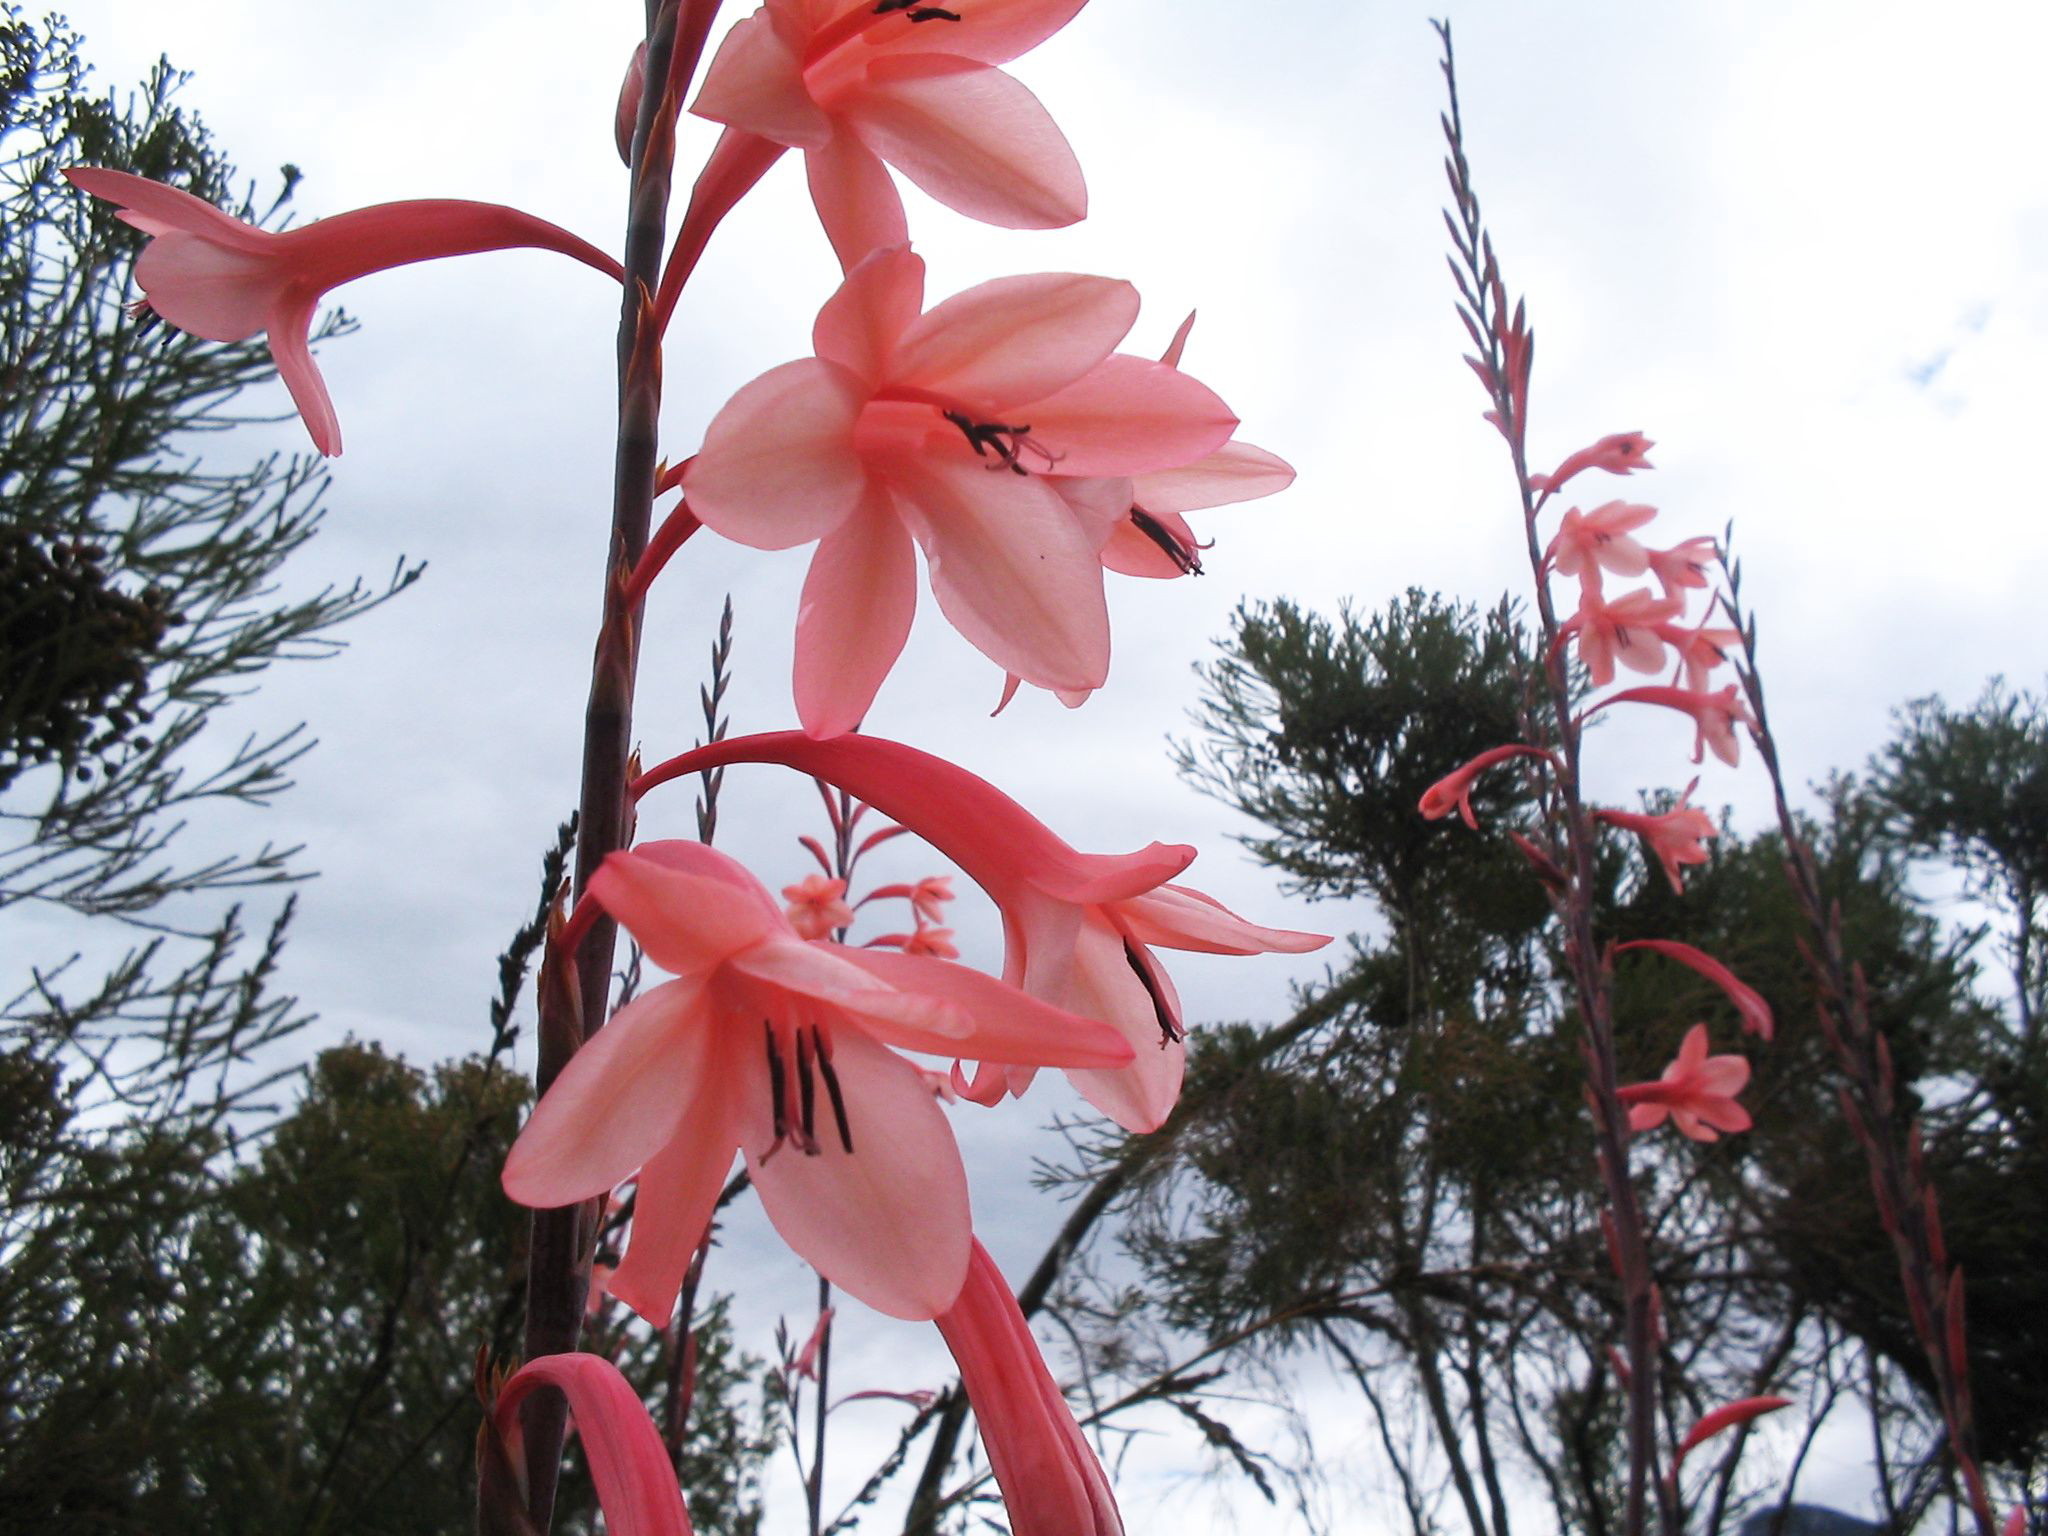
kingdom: Plantae
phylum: Tracheophyta
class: Liliopsida
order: Asparagales
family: Iridaceae
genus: Watsonia
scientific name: Watsonia fourcadei
